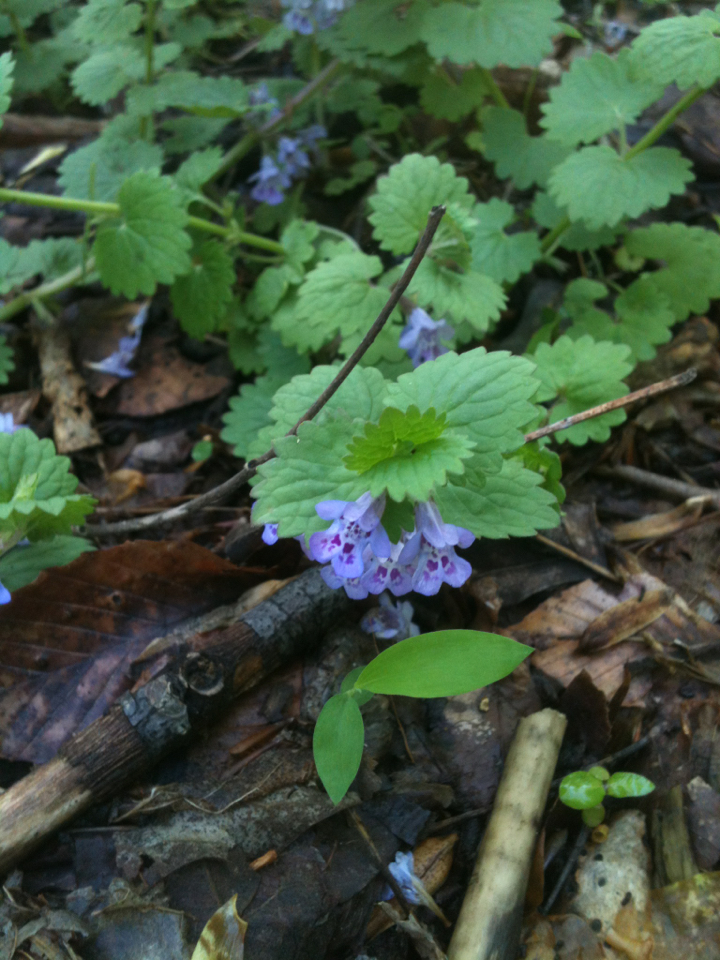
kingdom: Plantae
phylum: Tracheophyta
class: Magnoliopsida
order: Lamiales
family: Lamiaceae
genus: Glechoma
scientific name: Glechoma hederacea
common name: Ground ivy
